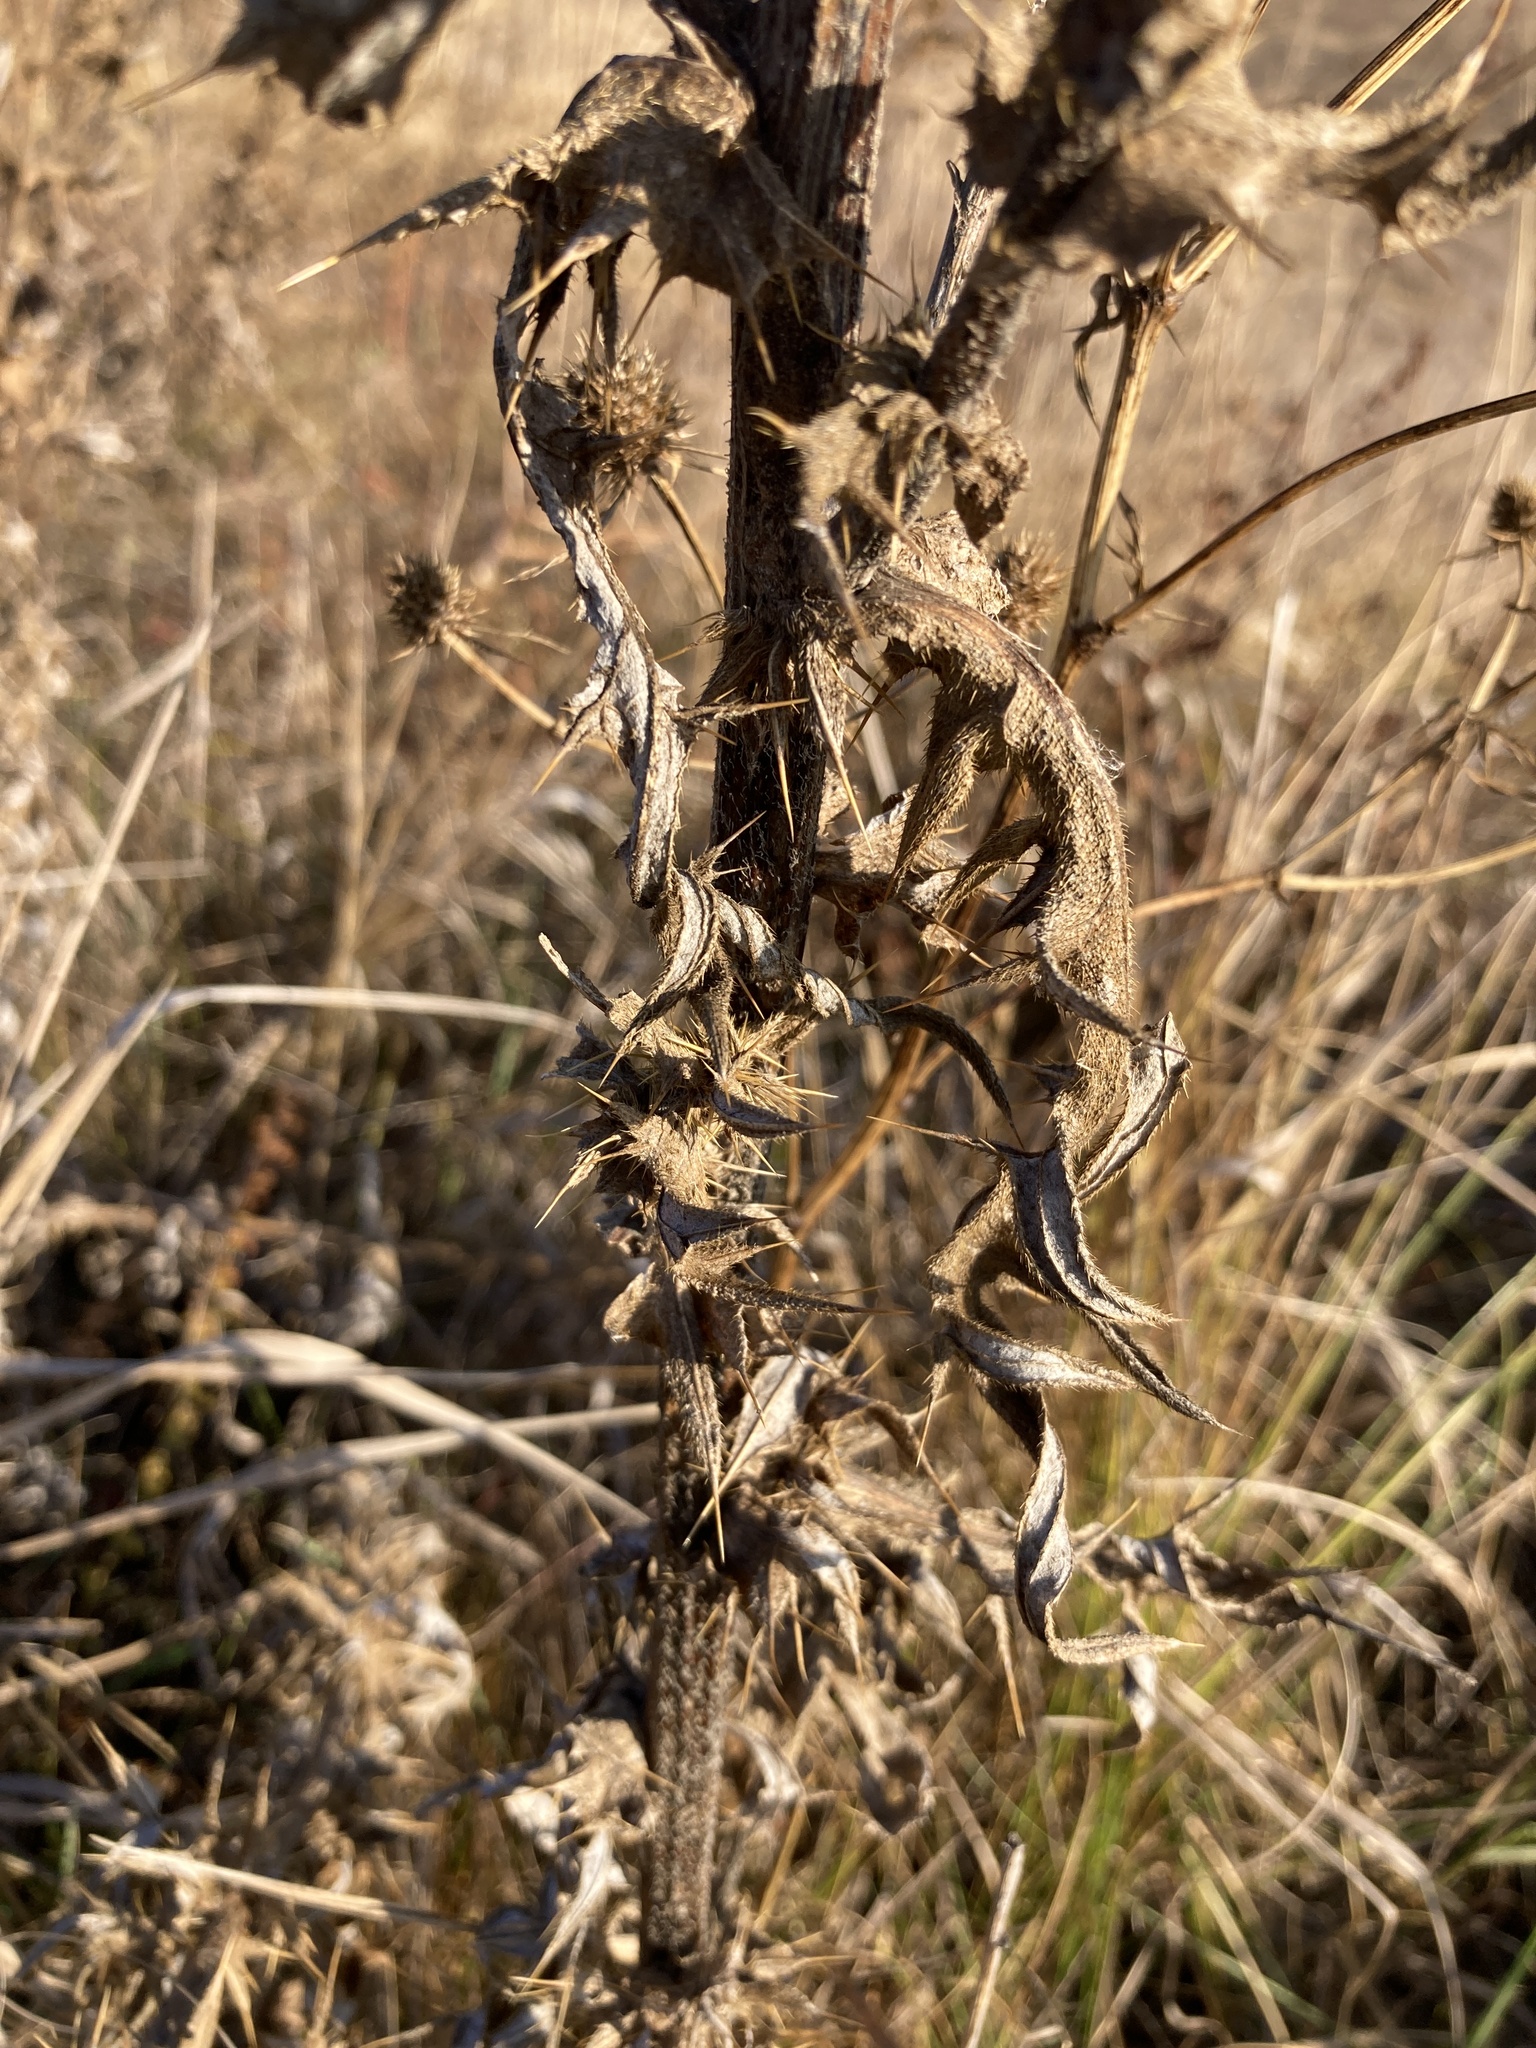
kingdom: Plantae
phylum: Tracheophyta
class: Magnoliopsida
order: Asterales
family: Asteraceae
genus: Cirsium
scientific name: Cirsium serrulatum
